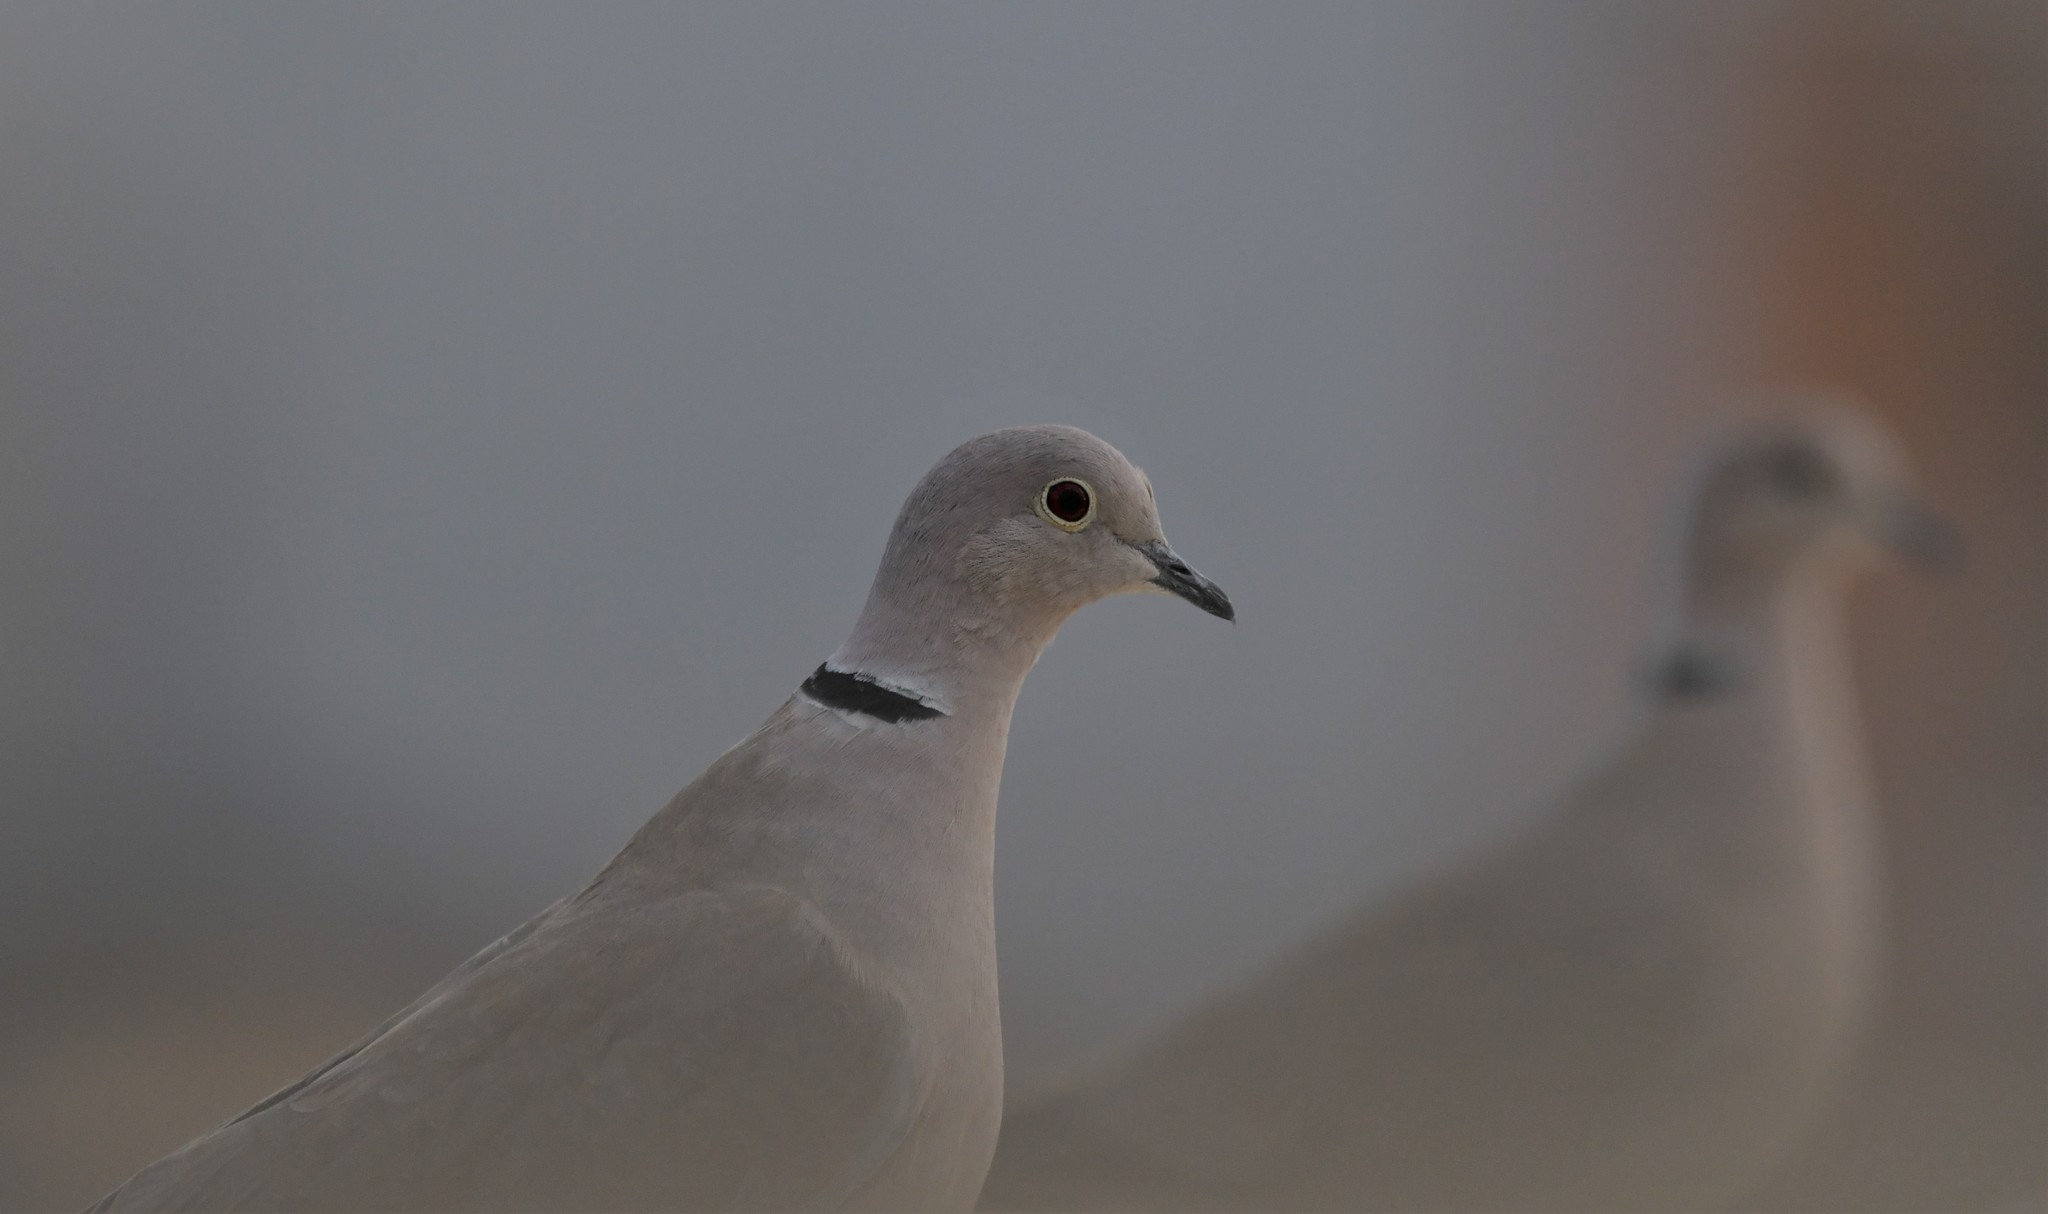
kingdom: Animalia
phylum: Chordata
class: Aves
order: Columbiformes
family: Columbidae
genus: Streptopelia
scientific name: Streptopelia decaocto
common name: Eurasian collared dove
